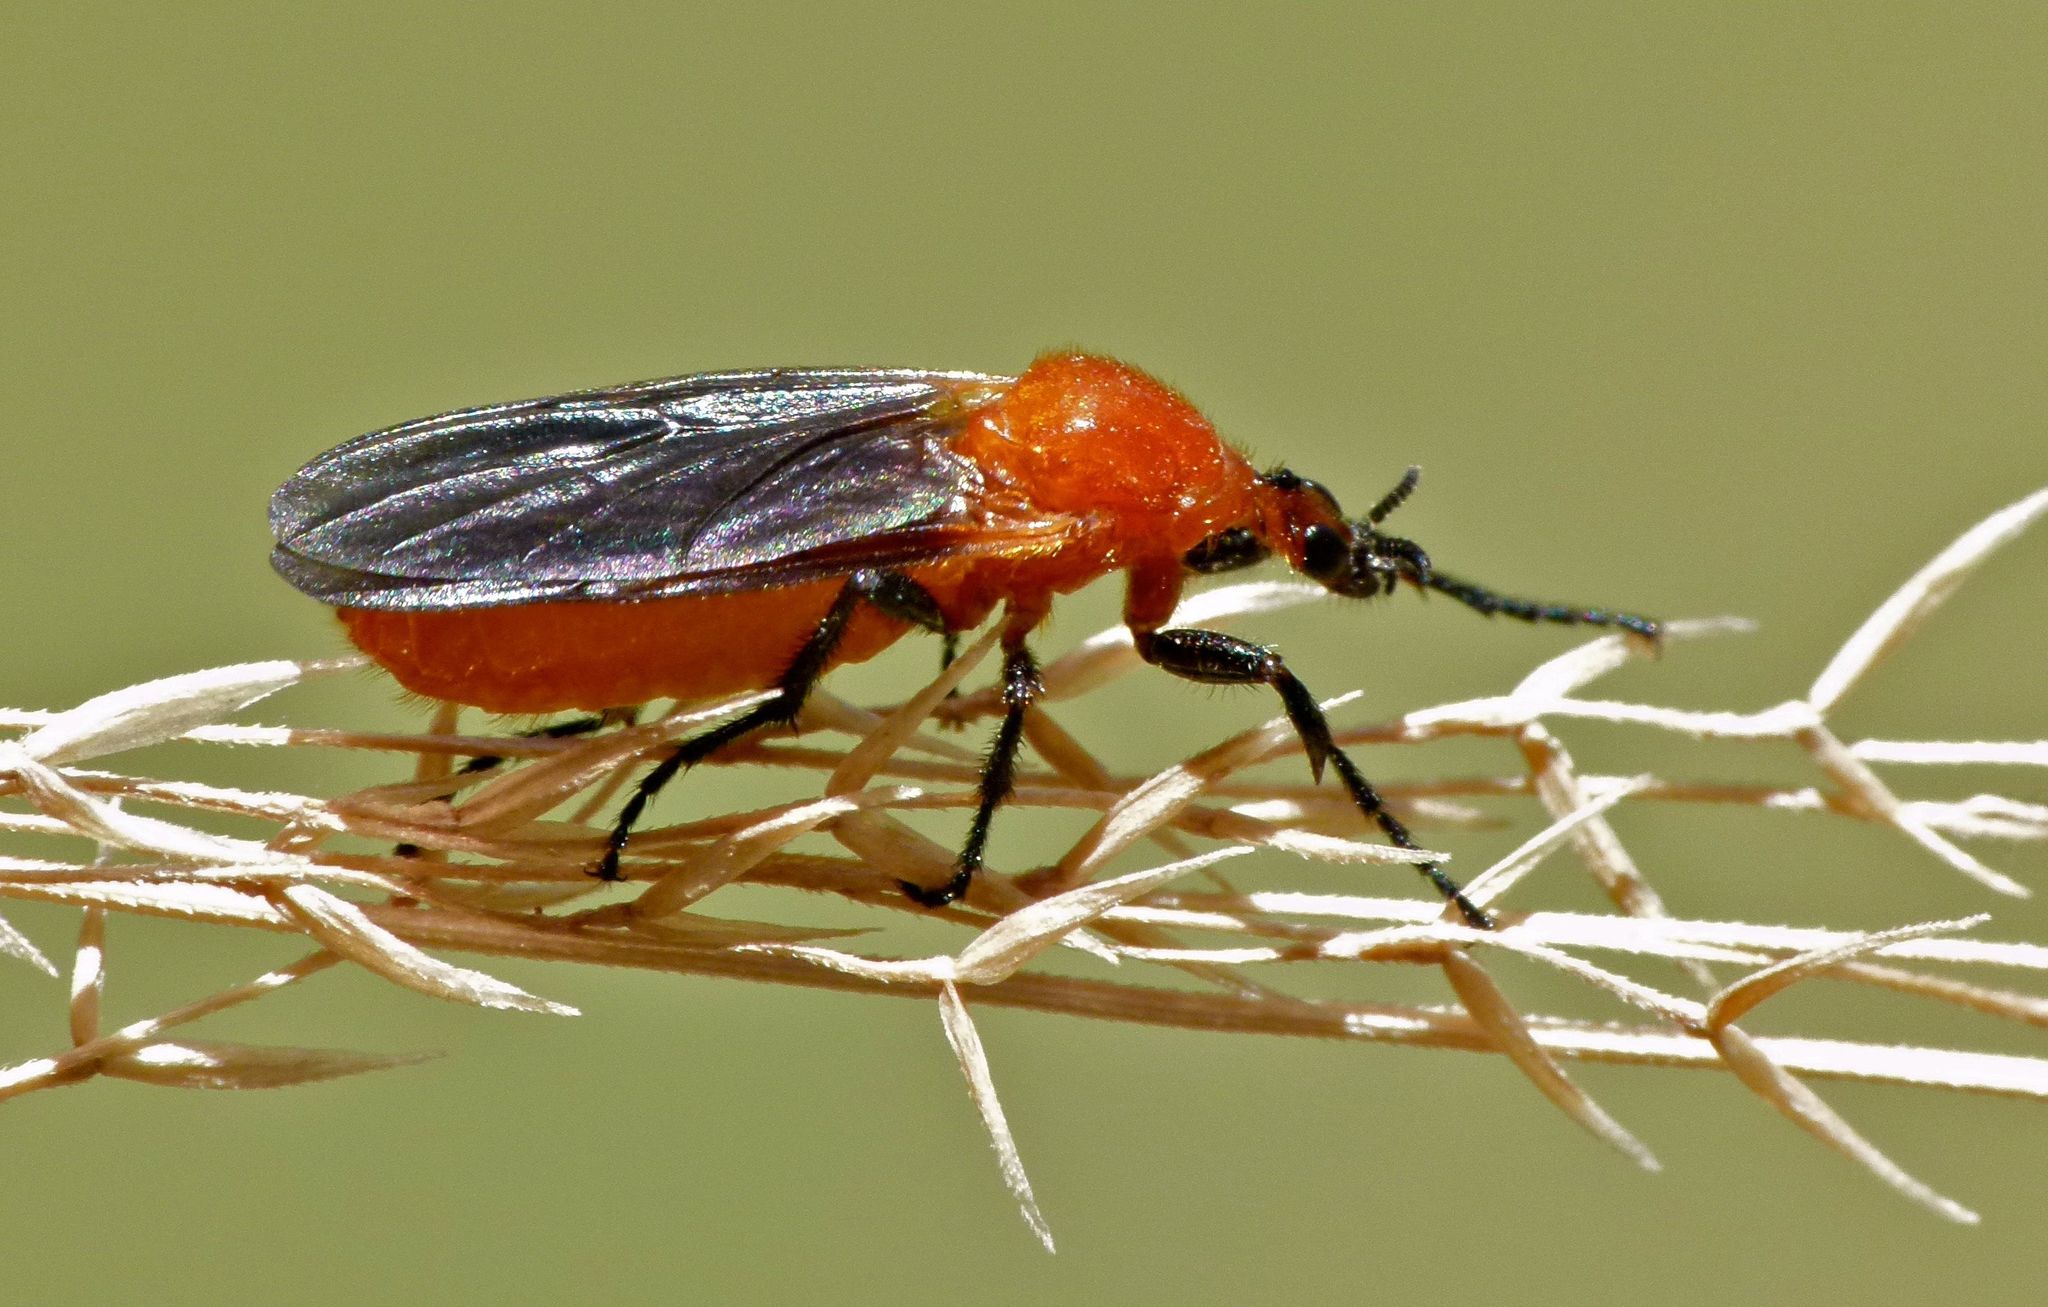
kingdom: Animalia
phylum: Arthropoda
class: Insecta
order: Diptera
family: Bibionidae
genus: Bibio
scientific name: Bibio imitator
